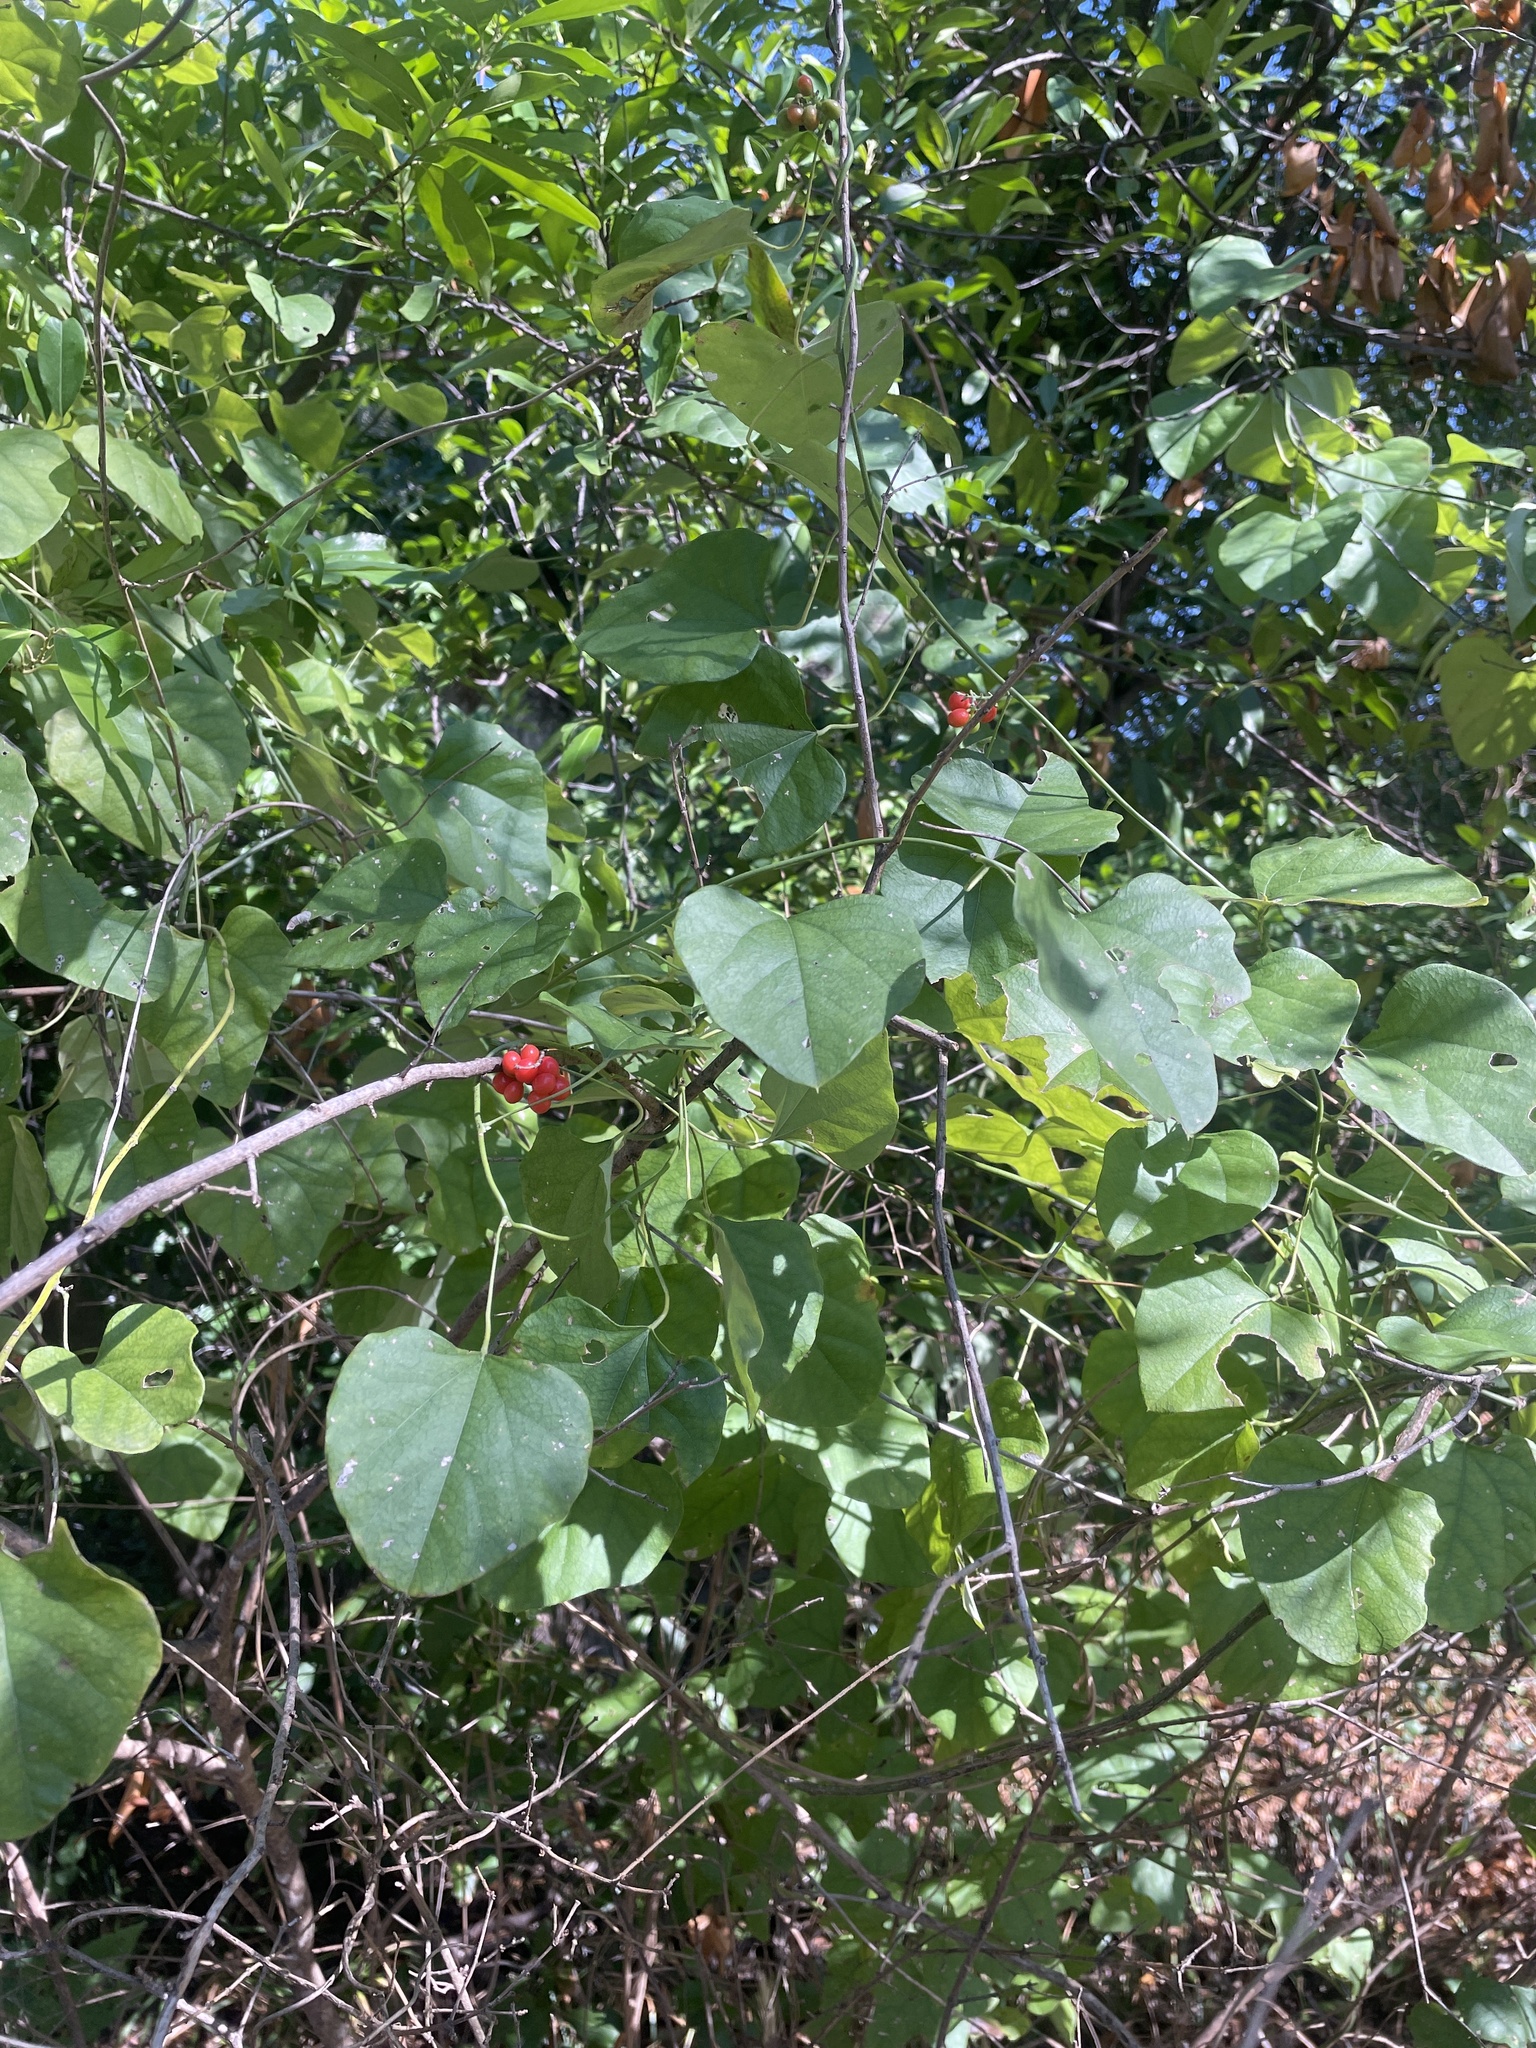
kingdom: Plantae
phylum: Tracheophyta
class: Magnoliopsida
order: Ranunculales
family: Menispermaceae
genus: Cocculus
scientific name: Cocculus carolinus
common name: Carolina moonseed
